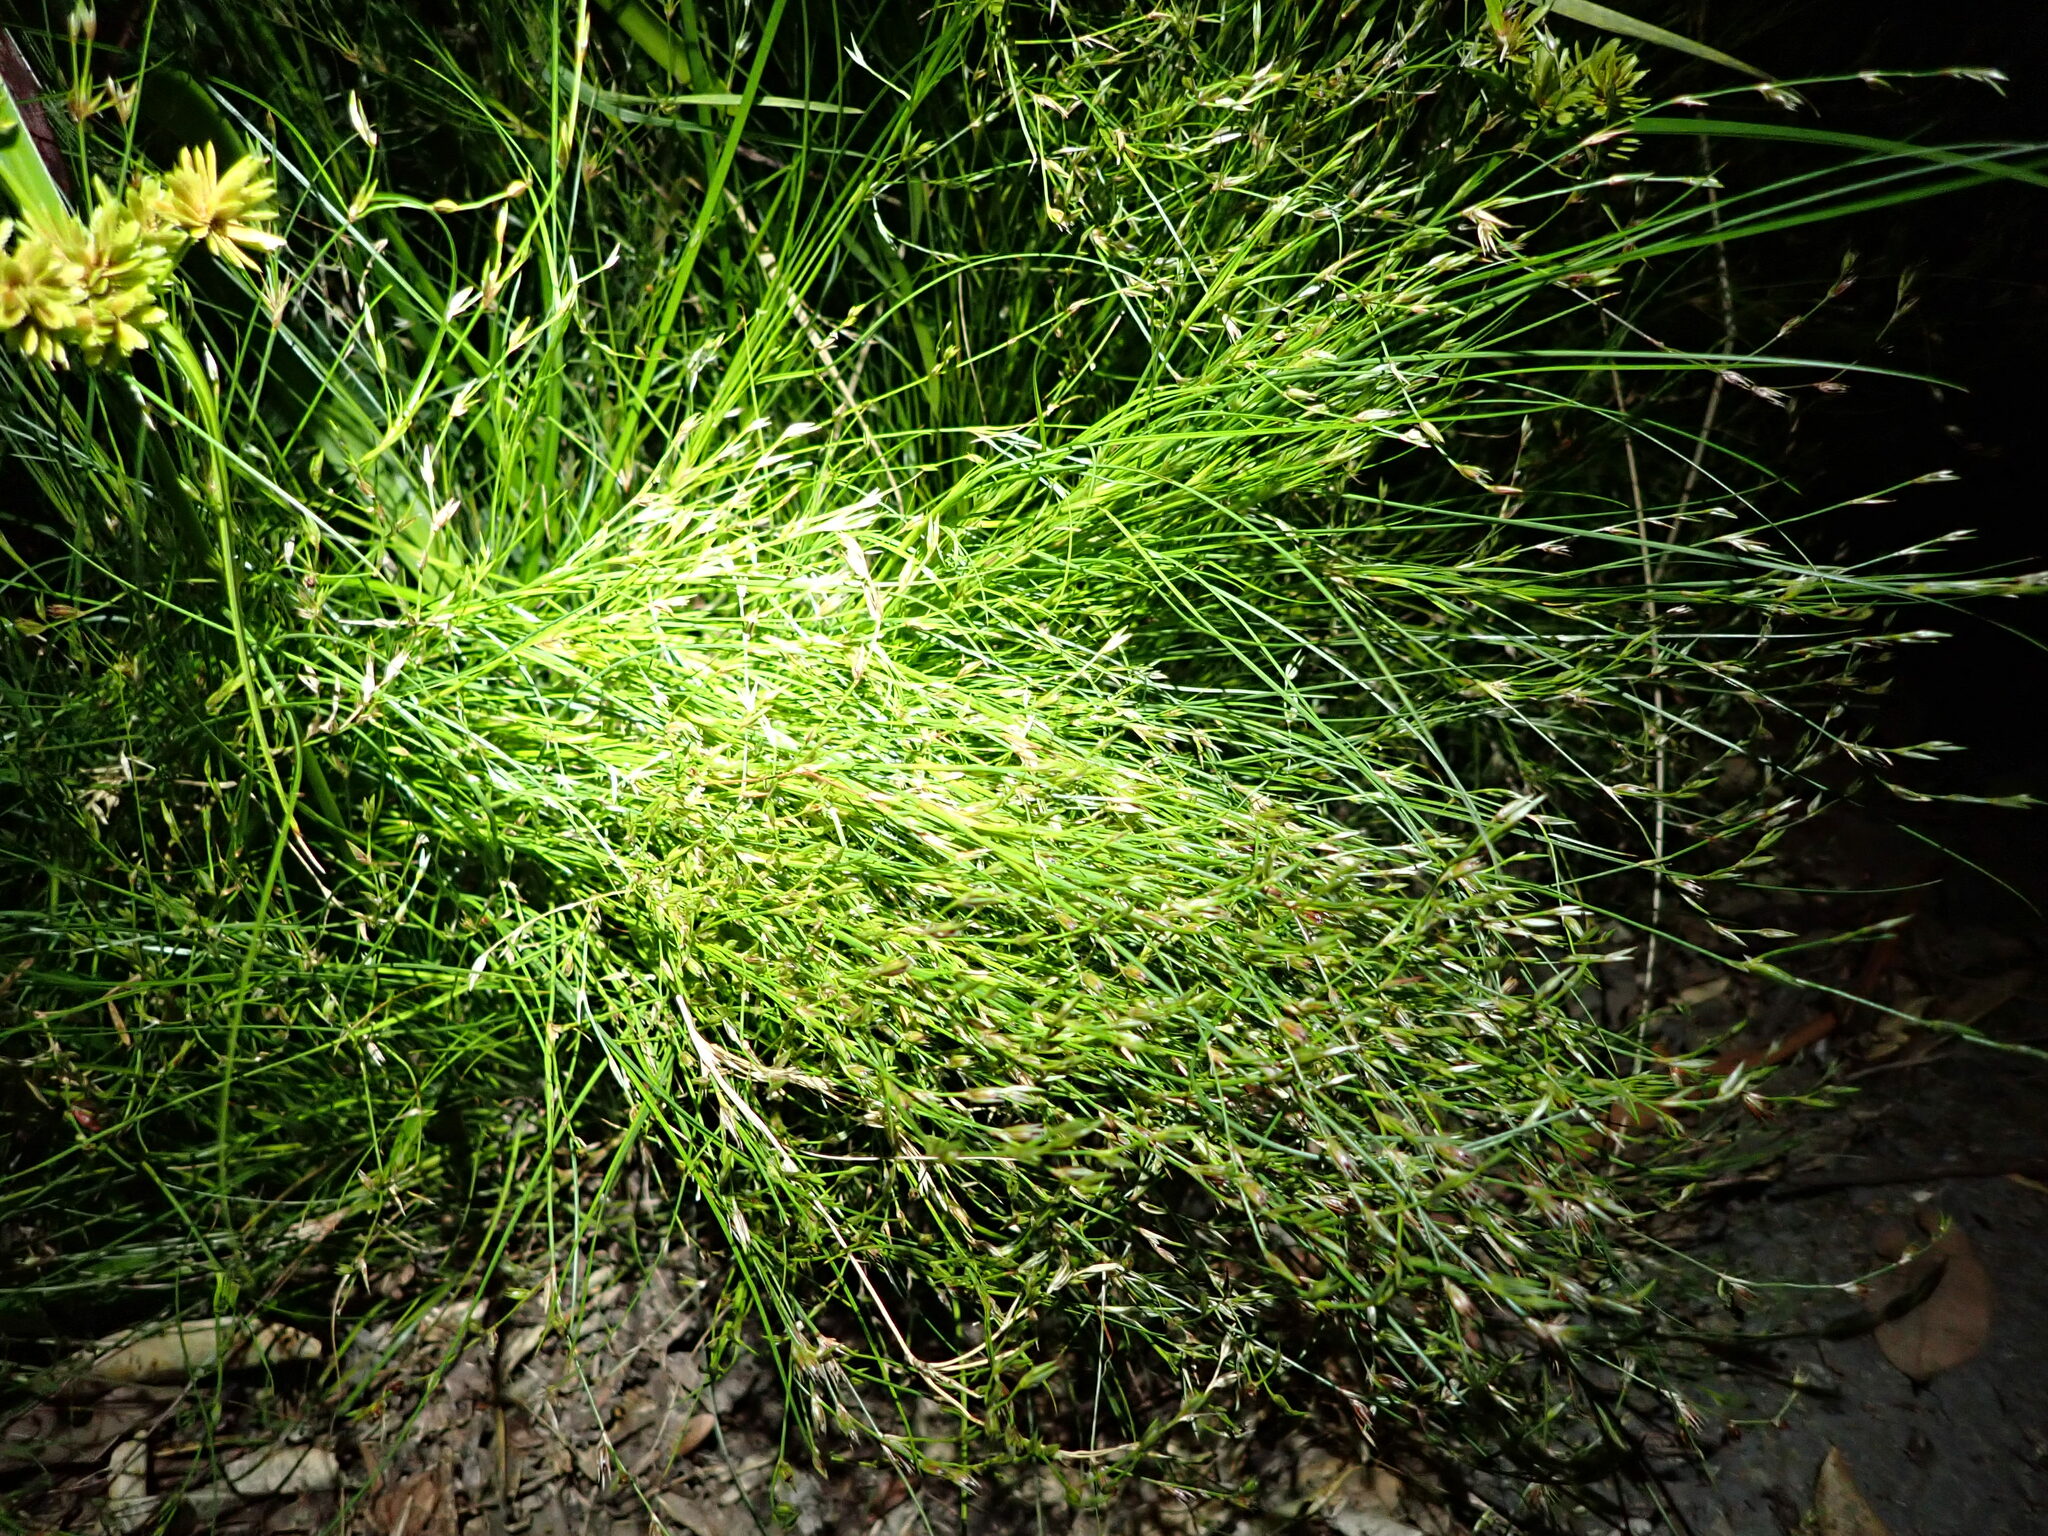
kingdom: Plantae
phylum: Tracheophyta
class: Liliopsida
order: Poales
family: Juncaceae
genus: Juncus
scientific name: Juncus bufonius
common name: Toad rush
